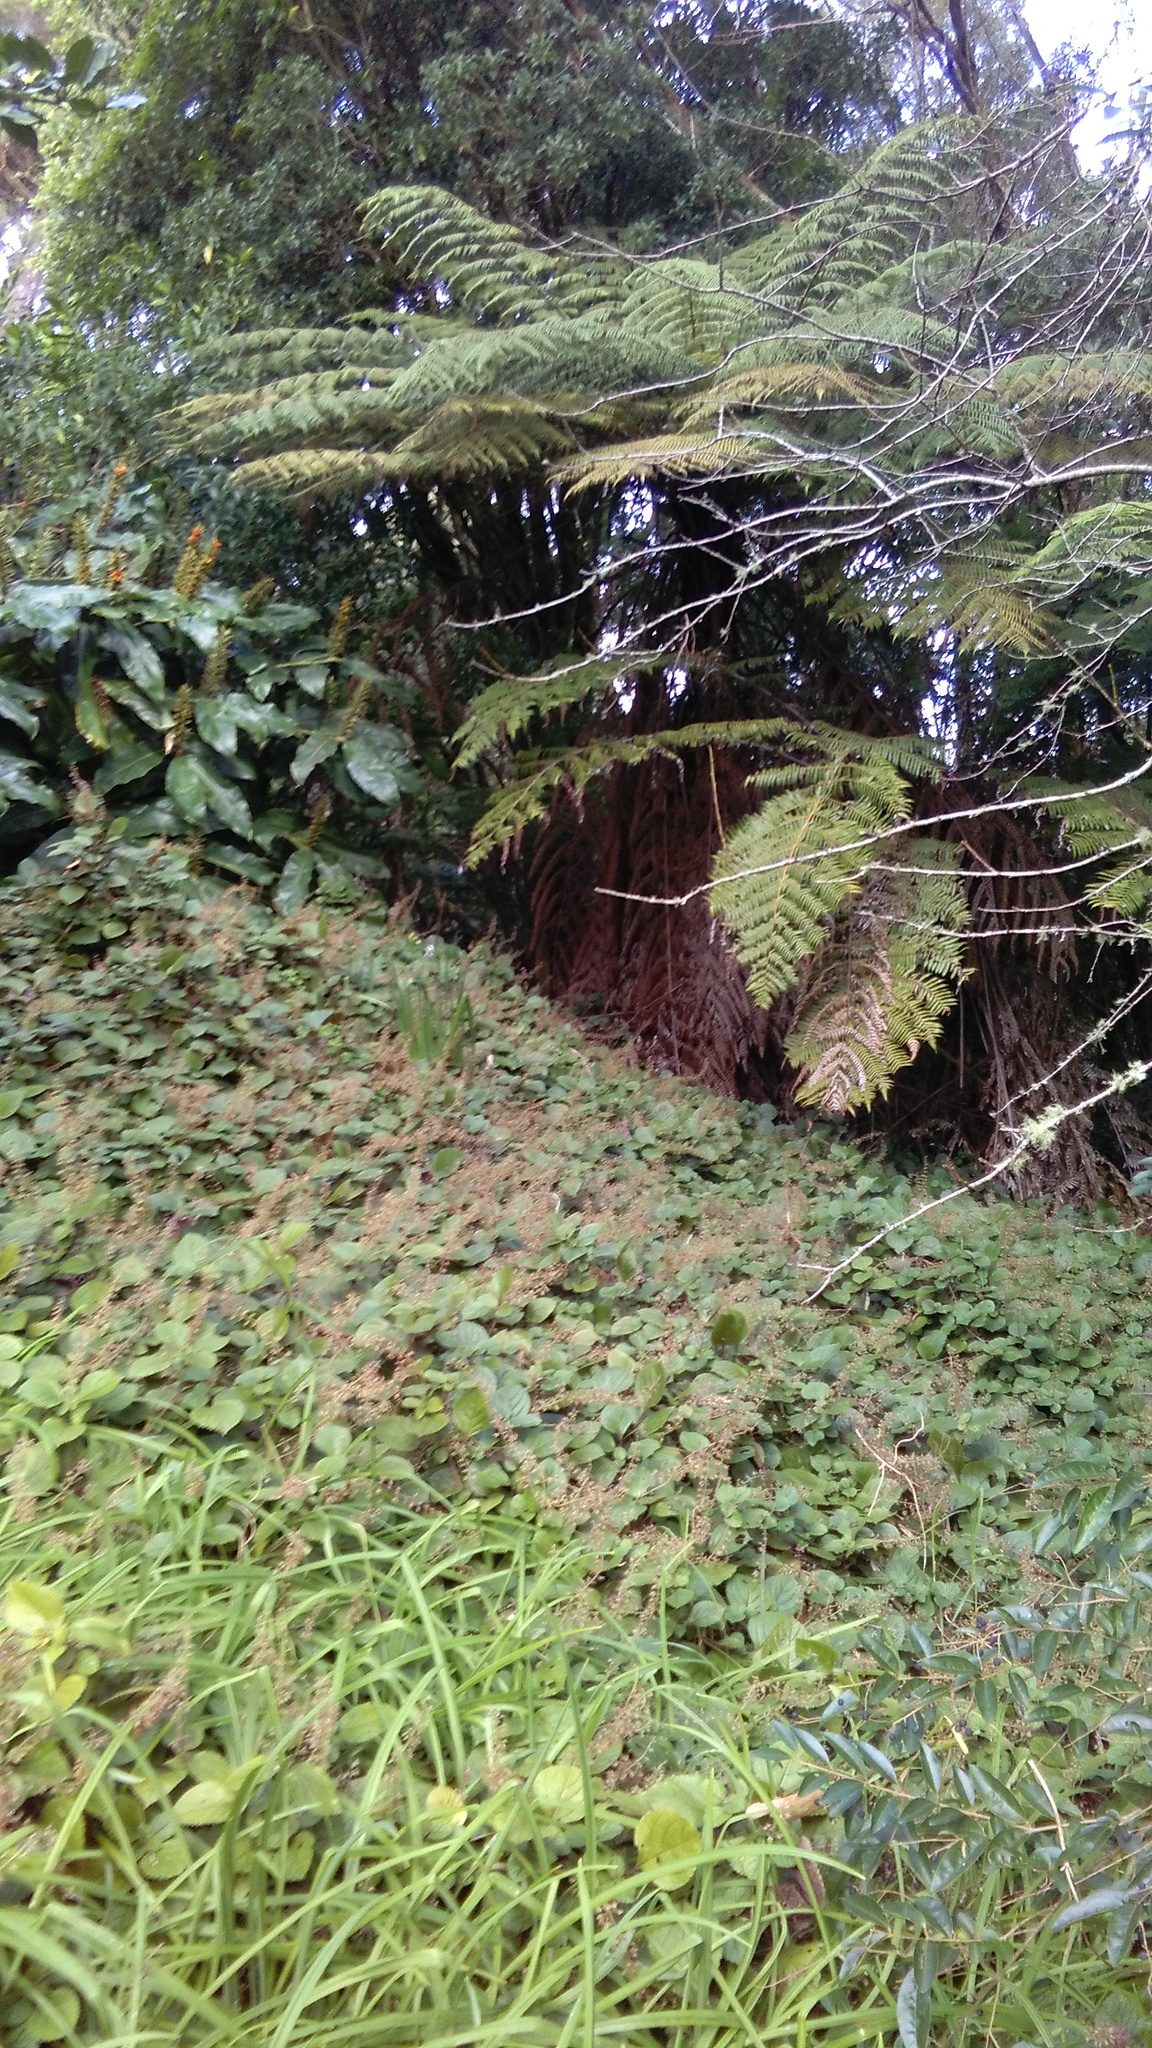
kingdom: Plantae
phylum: Tracheophyta
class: Magnoliopsida
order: Lamiales
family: Lamiaceae
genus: Plectranthus
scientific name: Plectranthus ciliatus
